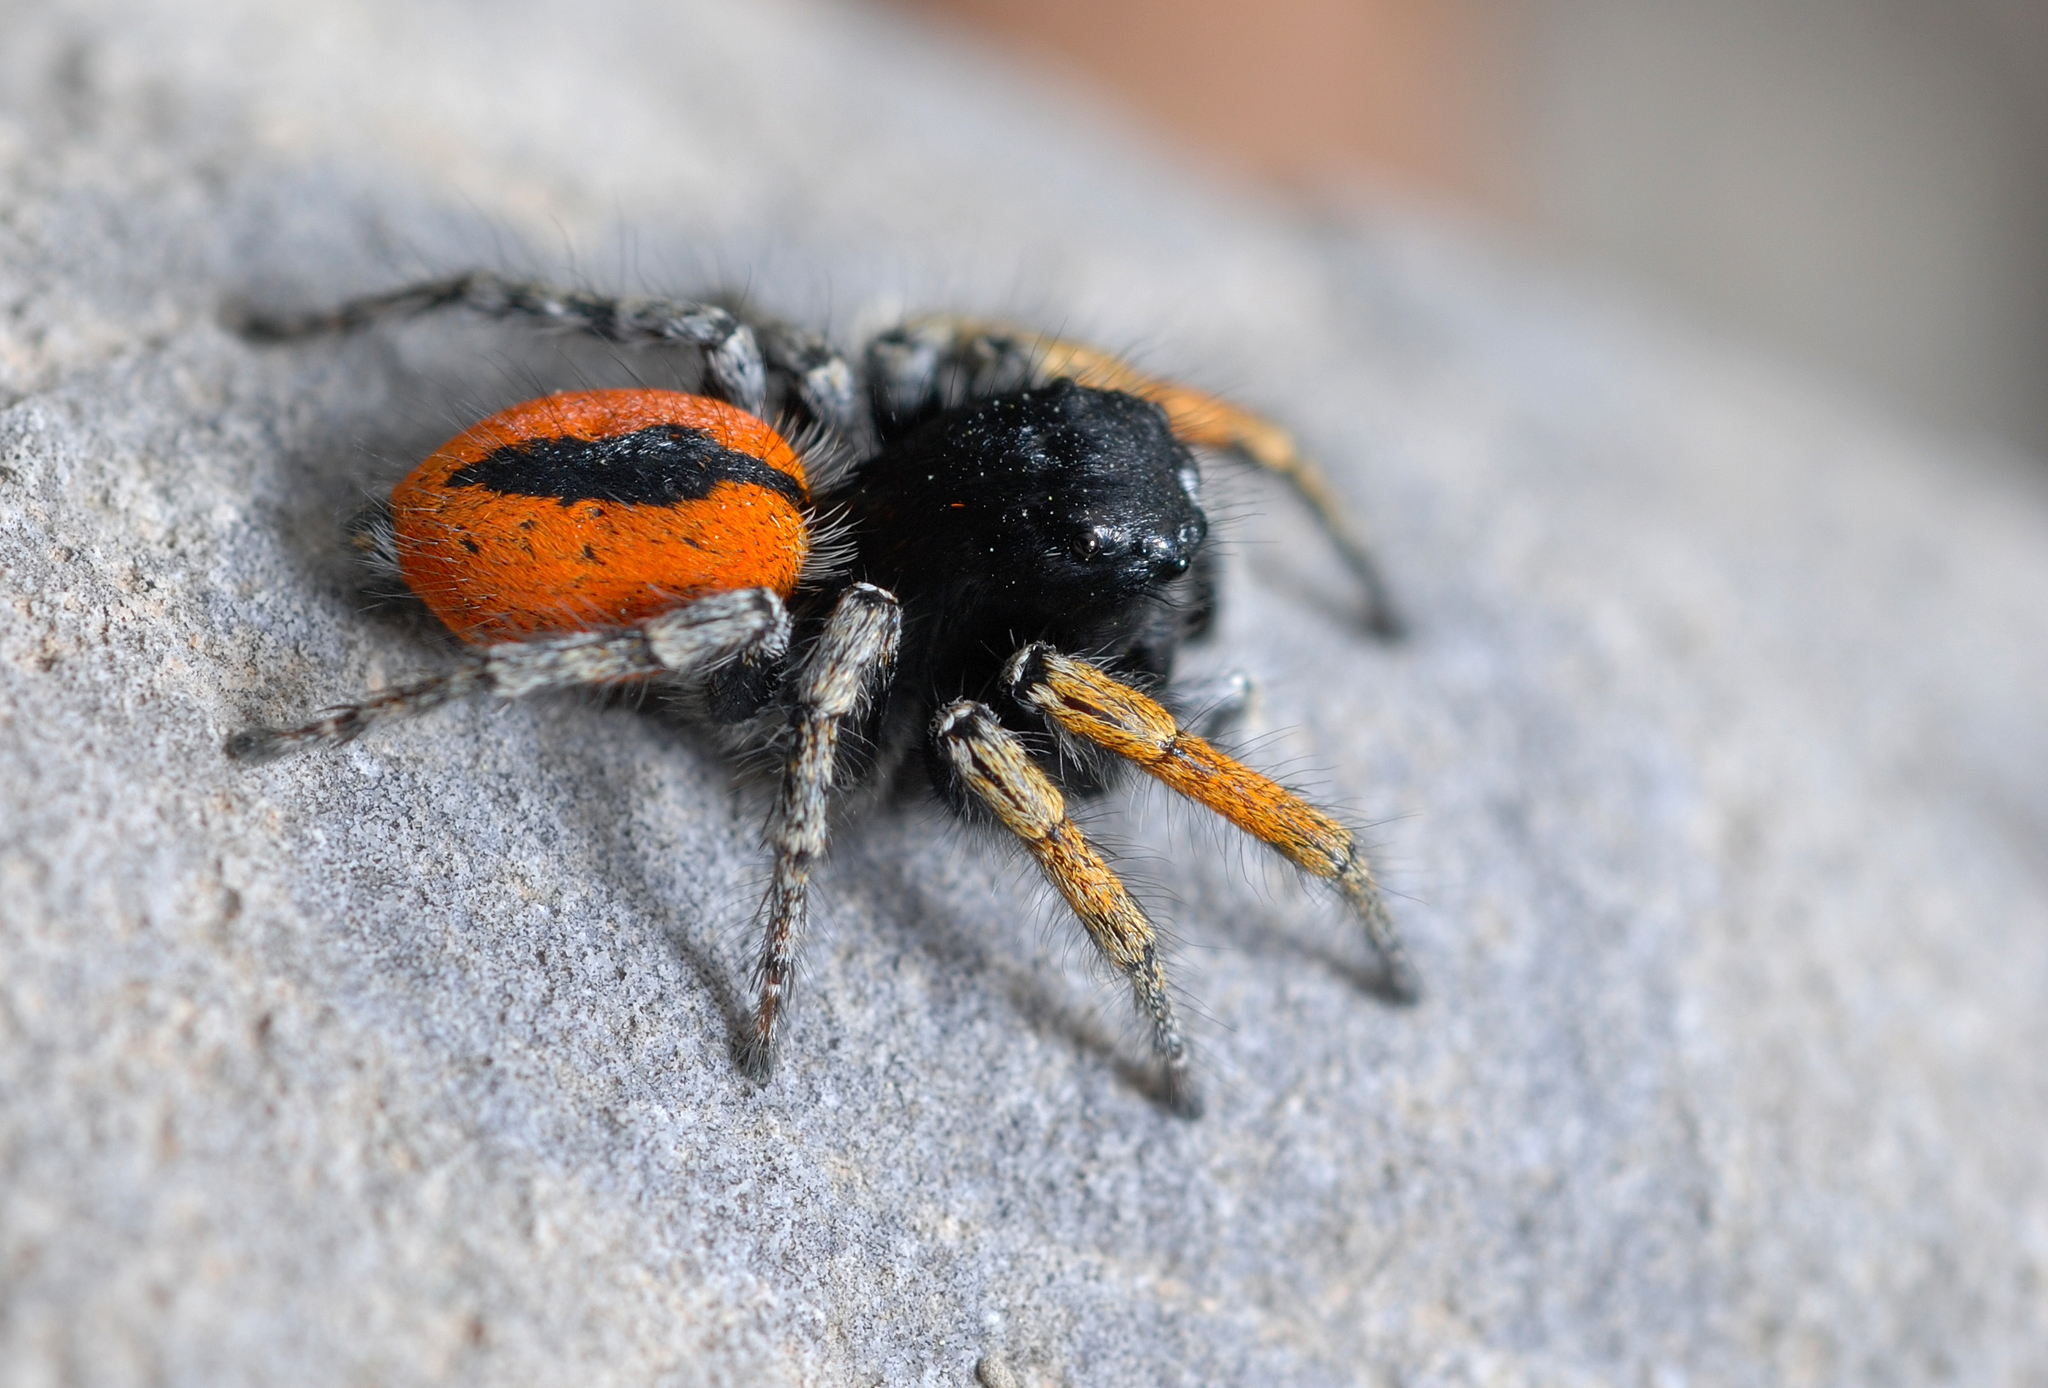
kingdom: Animalia
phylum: Arthropoda
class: Arachnida
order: Araneae
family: Salticidae
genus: Philaeus
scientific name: Philaeus chrysops
